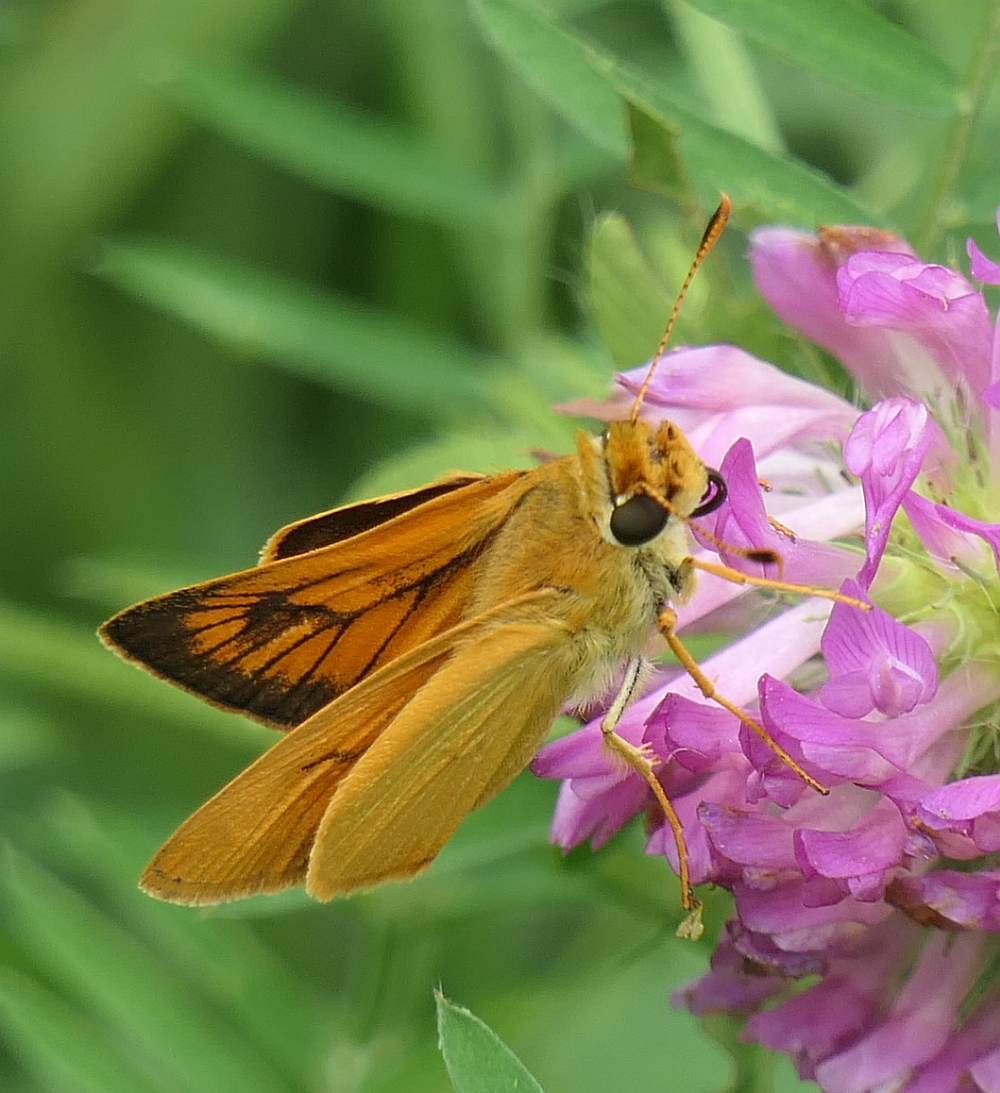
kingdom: Animalia
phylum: Arthropoda
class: Insecta
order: Lepidoptera
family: Hesperiidae
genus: Atrytone
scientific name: Atrytone delaware
